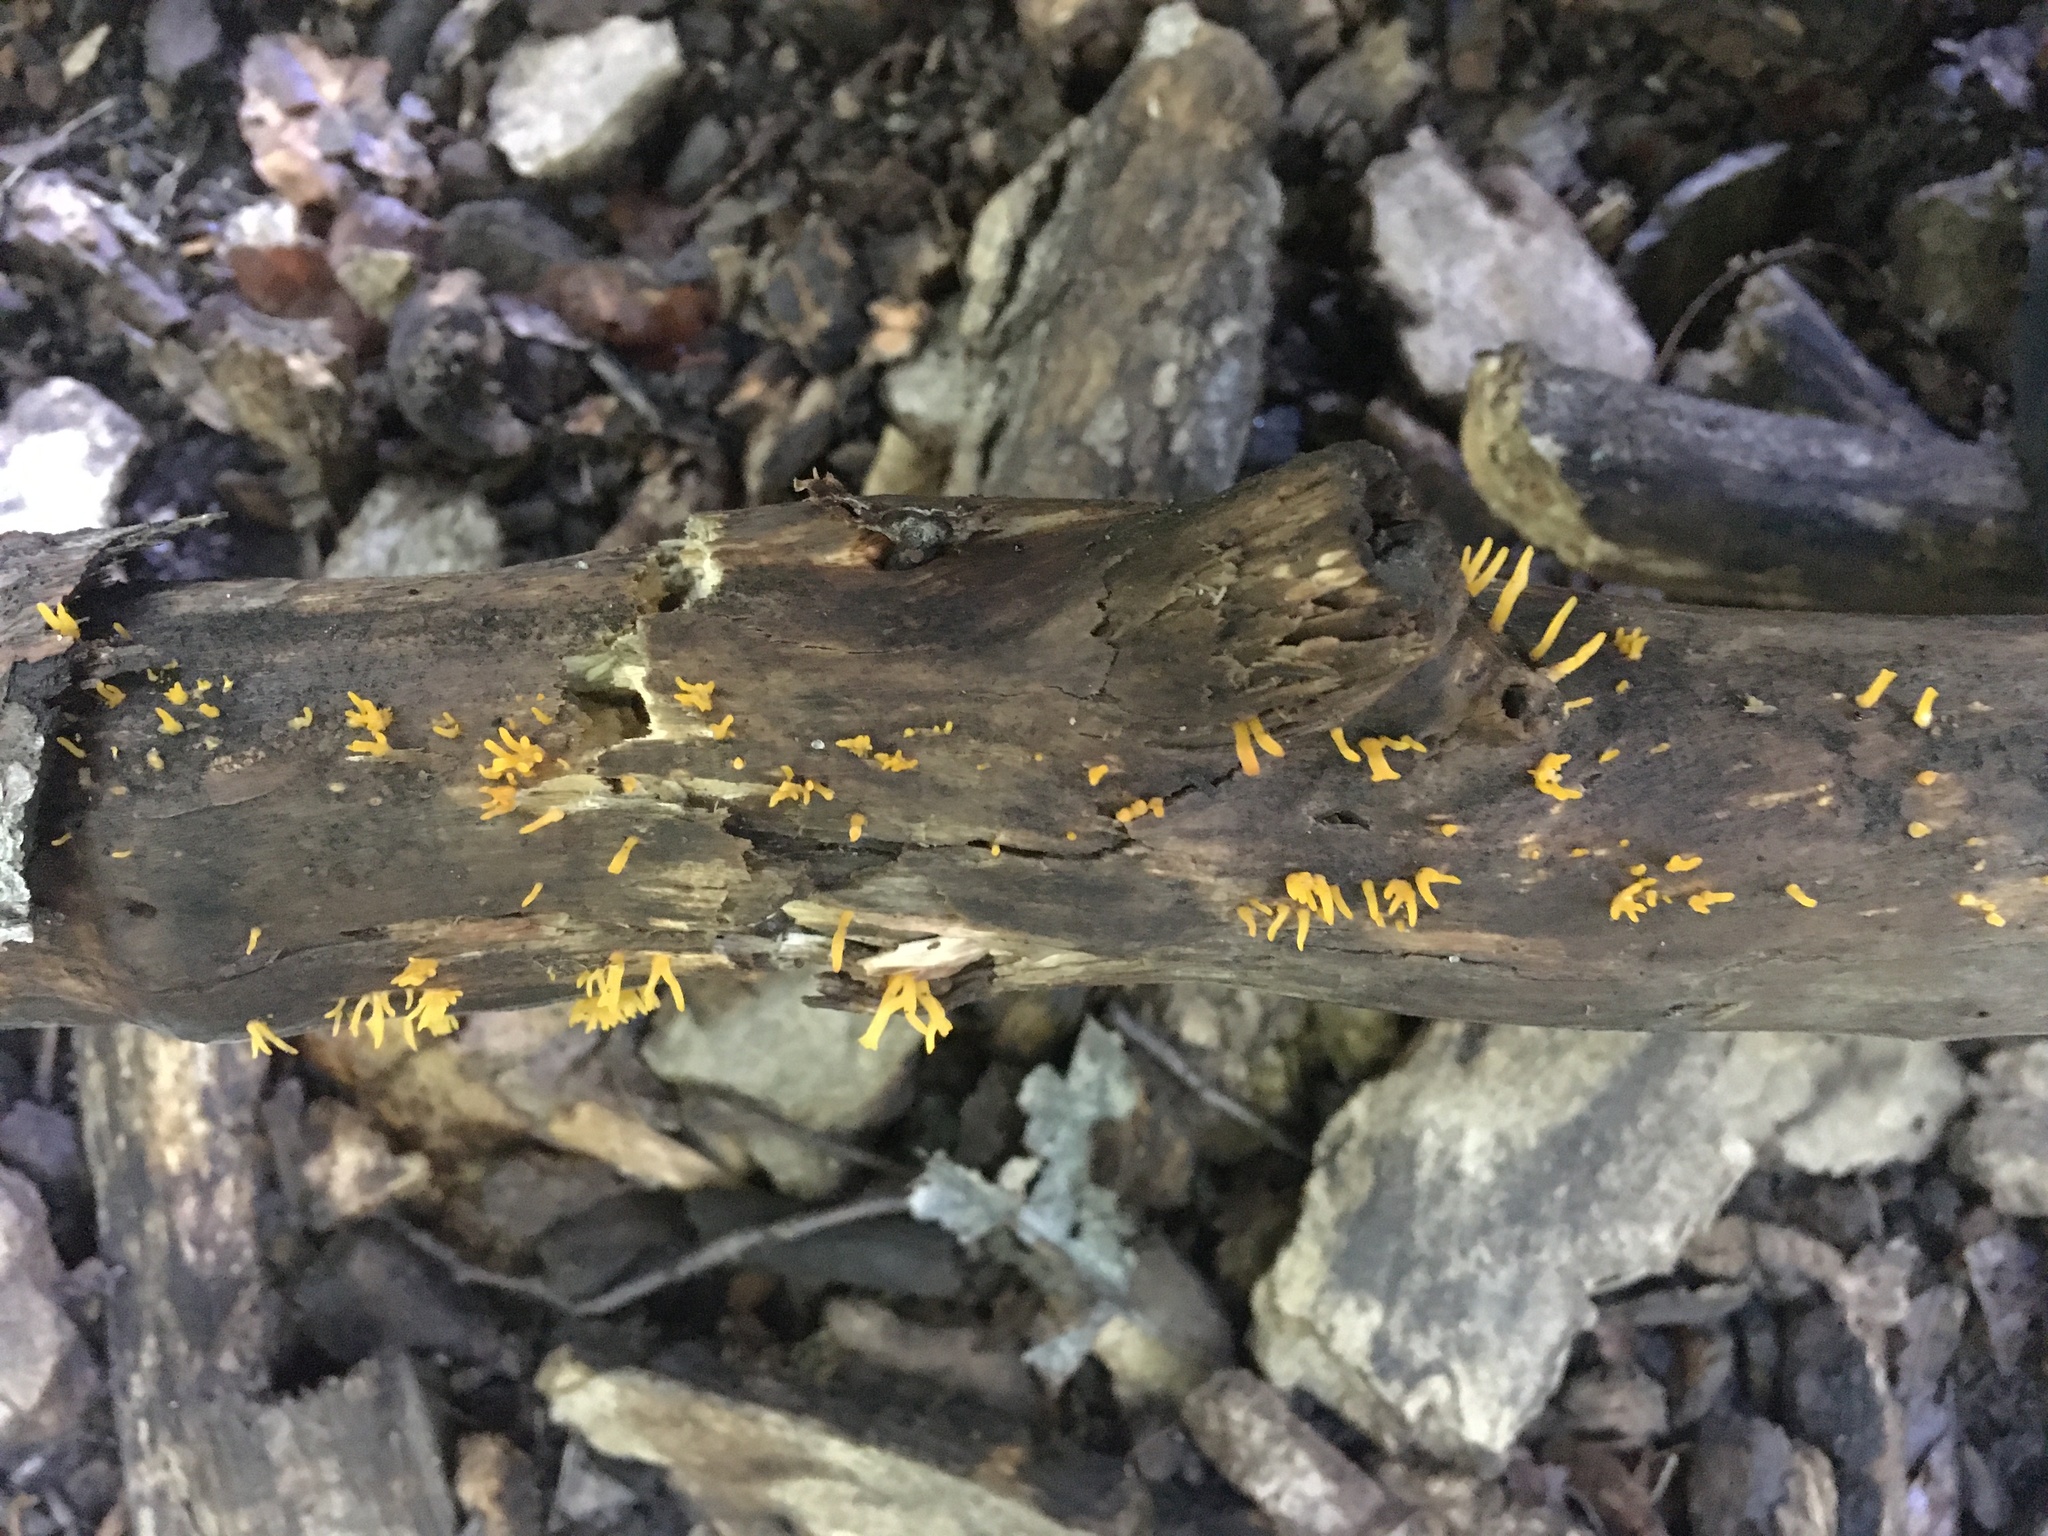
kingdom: Fungi
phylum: Basidiomycota
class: Dacrymycetes
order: Dacrymycetales
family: Dacrymycetaceae
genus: Calocera
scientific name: Calocera cornea
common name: Small stagshorn
